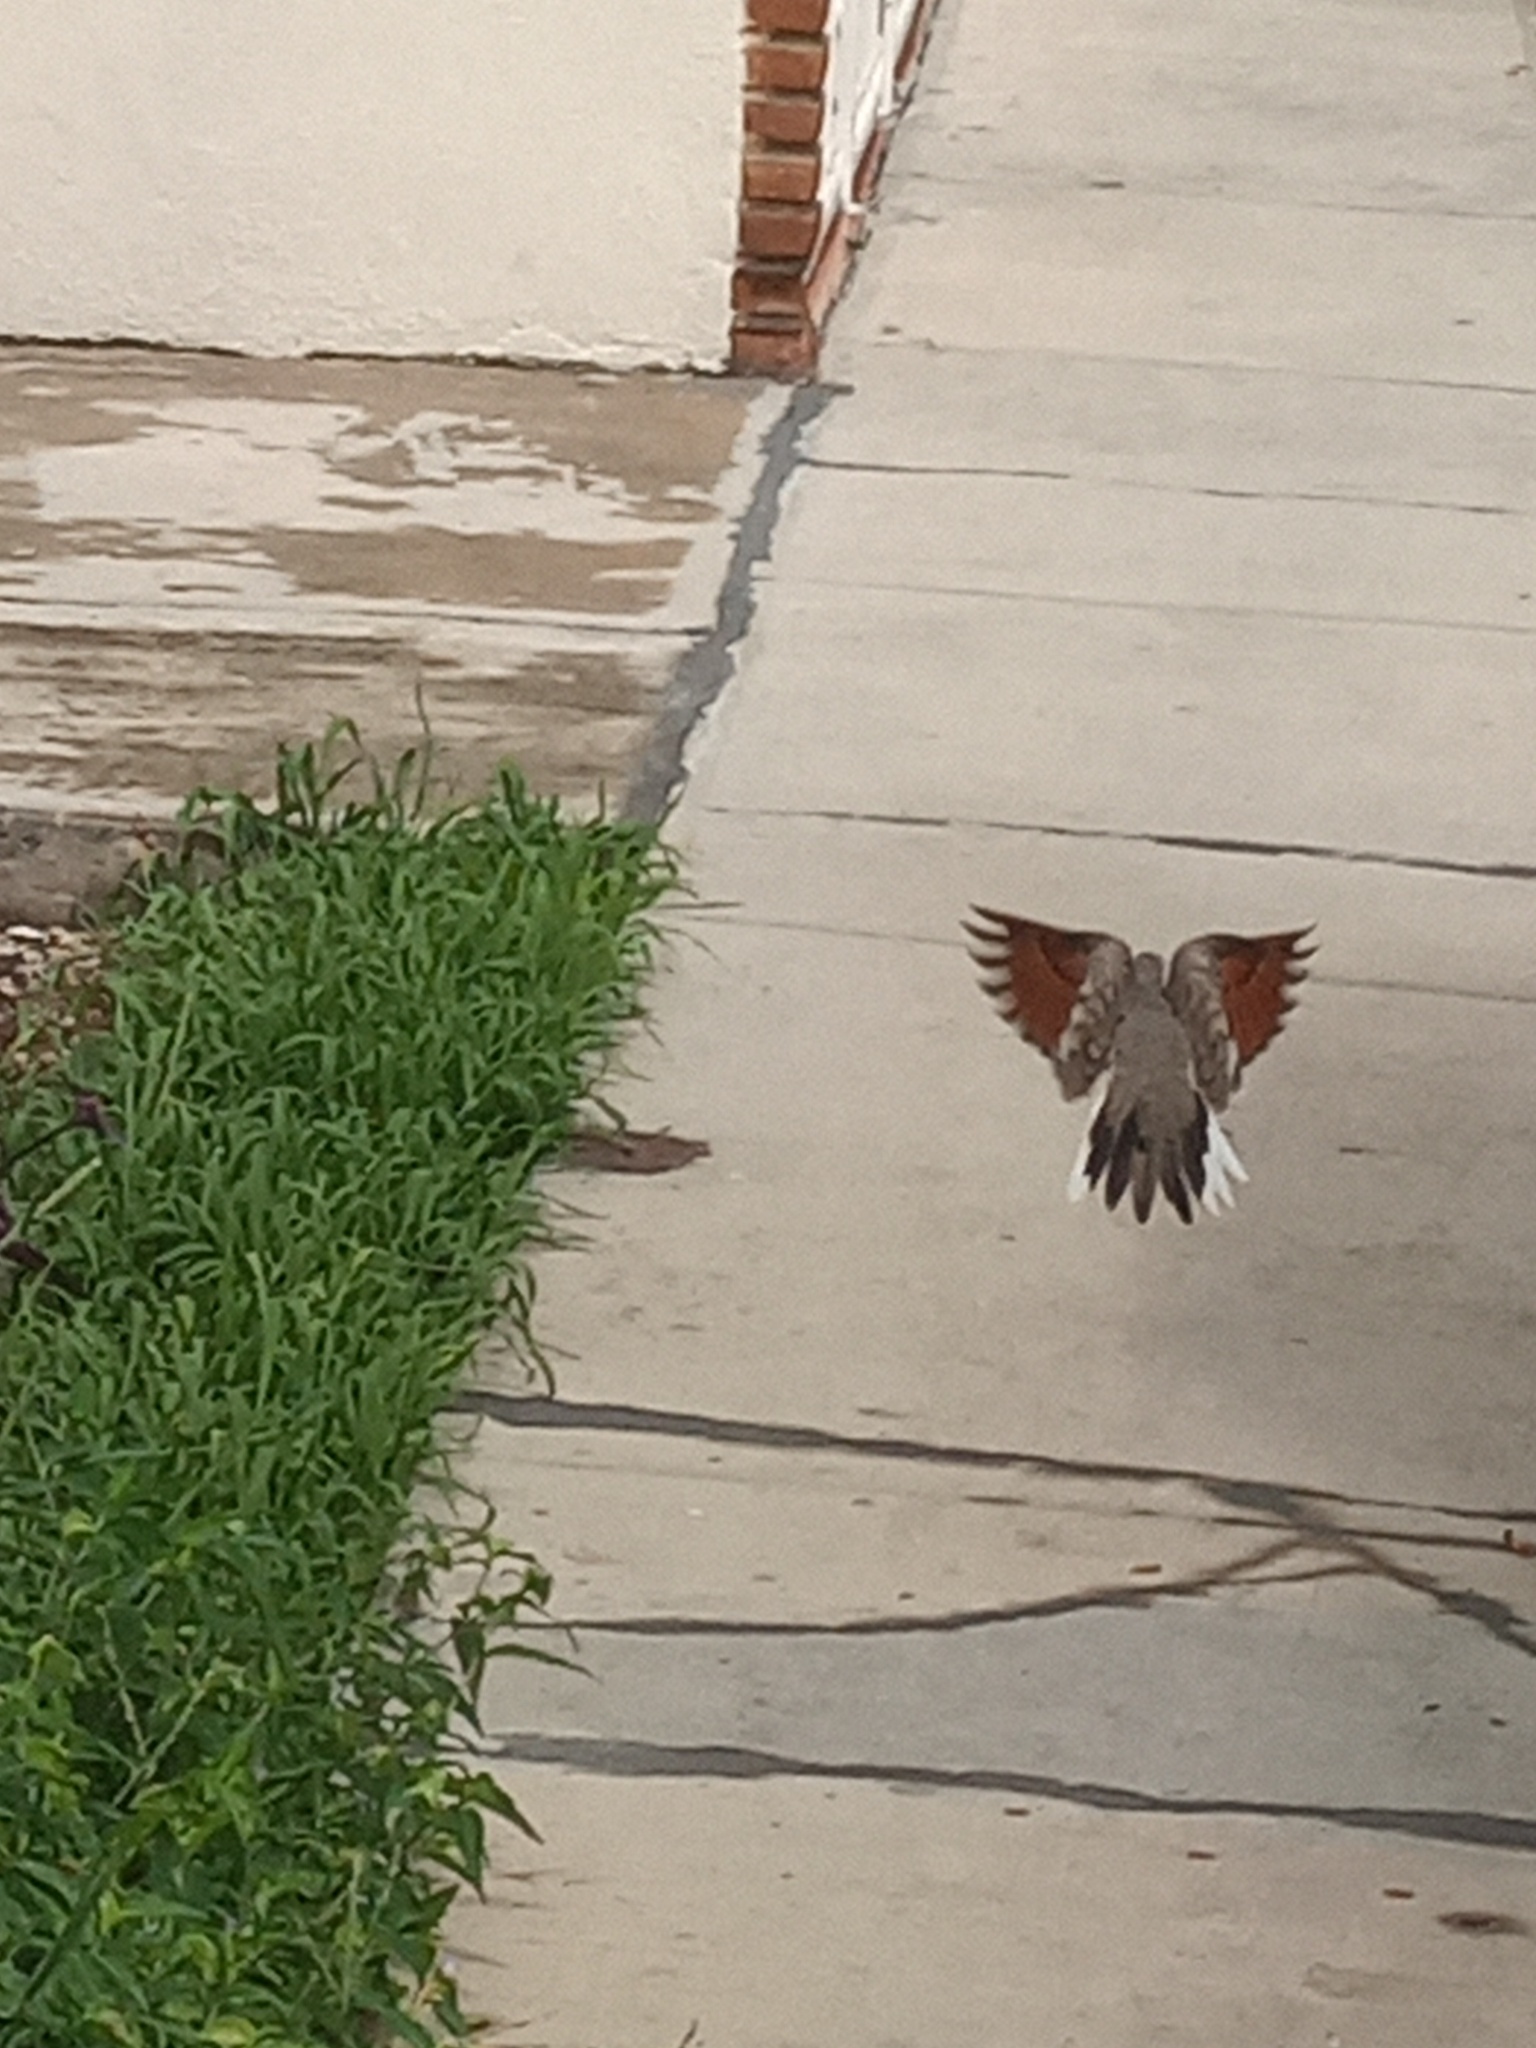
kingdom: Animalia
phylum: Chordata
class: Aves
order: Columbiformes
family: Columbidae
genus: Columbina
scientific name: Columbina inca
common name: Inca dove
